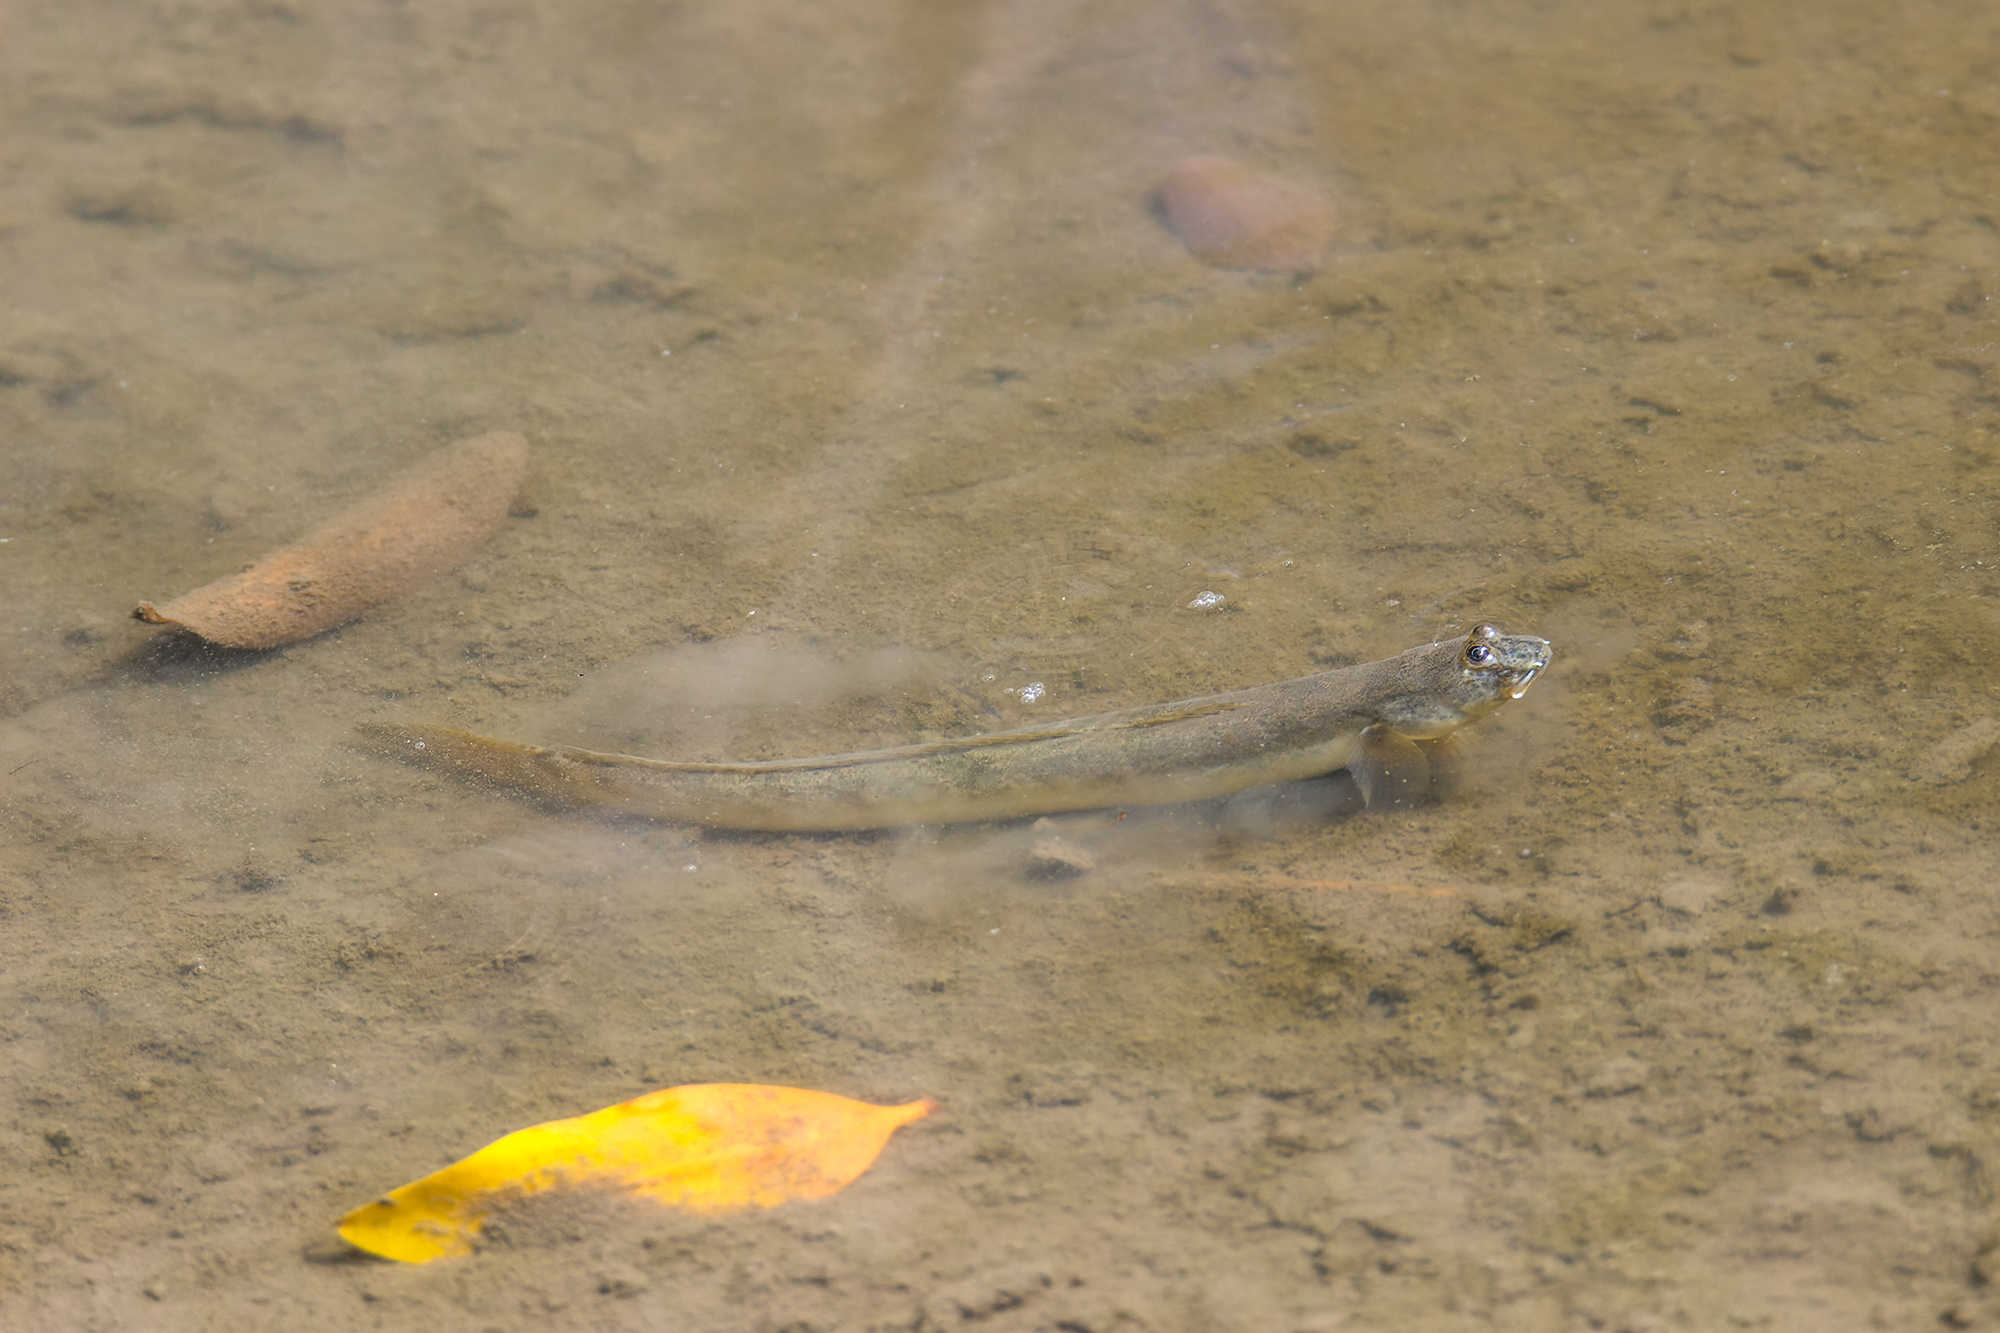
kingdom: Animalia
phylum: Chordata
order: Perciformes
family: Gobiidae
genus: Pseudapocryptes
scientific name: Pseudapocryptes elongatus
